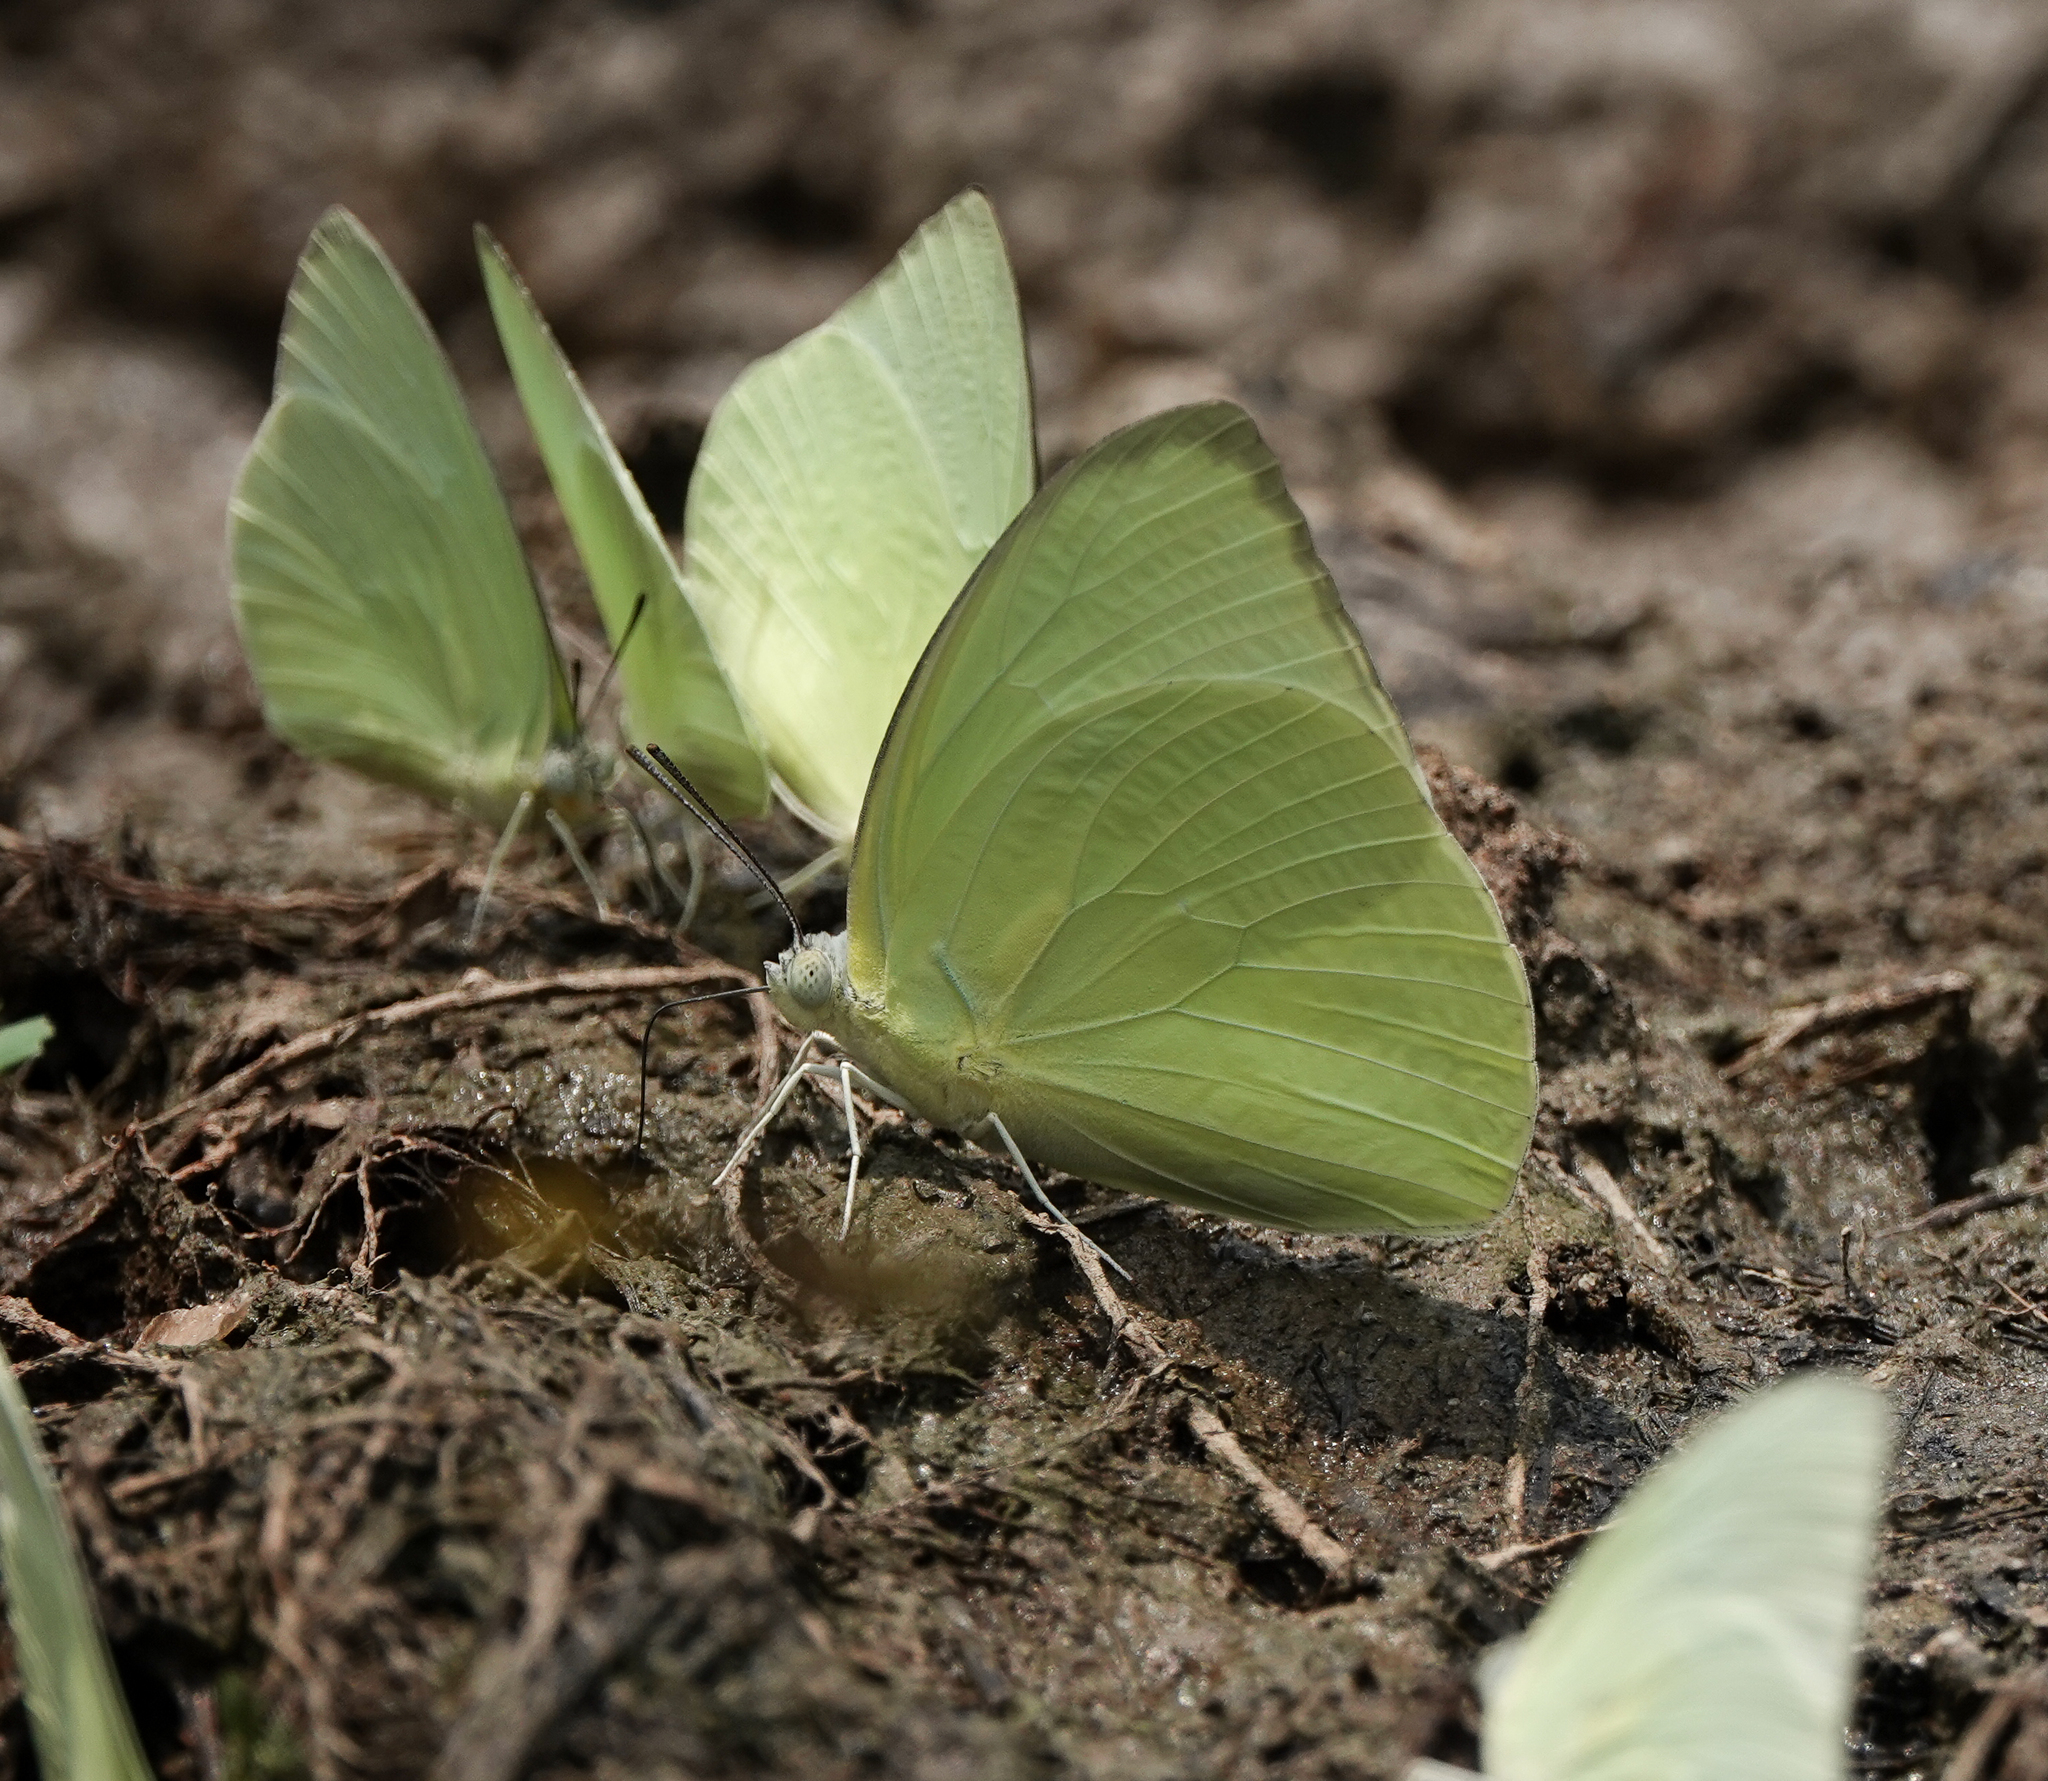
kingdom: Animalia
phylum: Arthropoda
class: Insecta
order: Lepidoptera
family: Pieridae
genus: Catopsilia
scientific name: Catopsilia pomona
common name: Common emigrant
